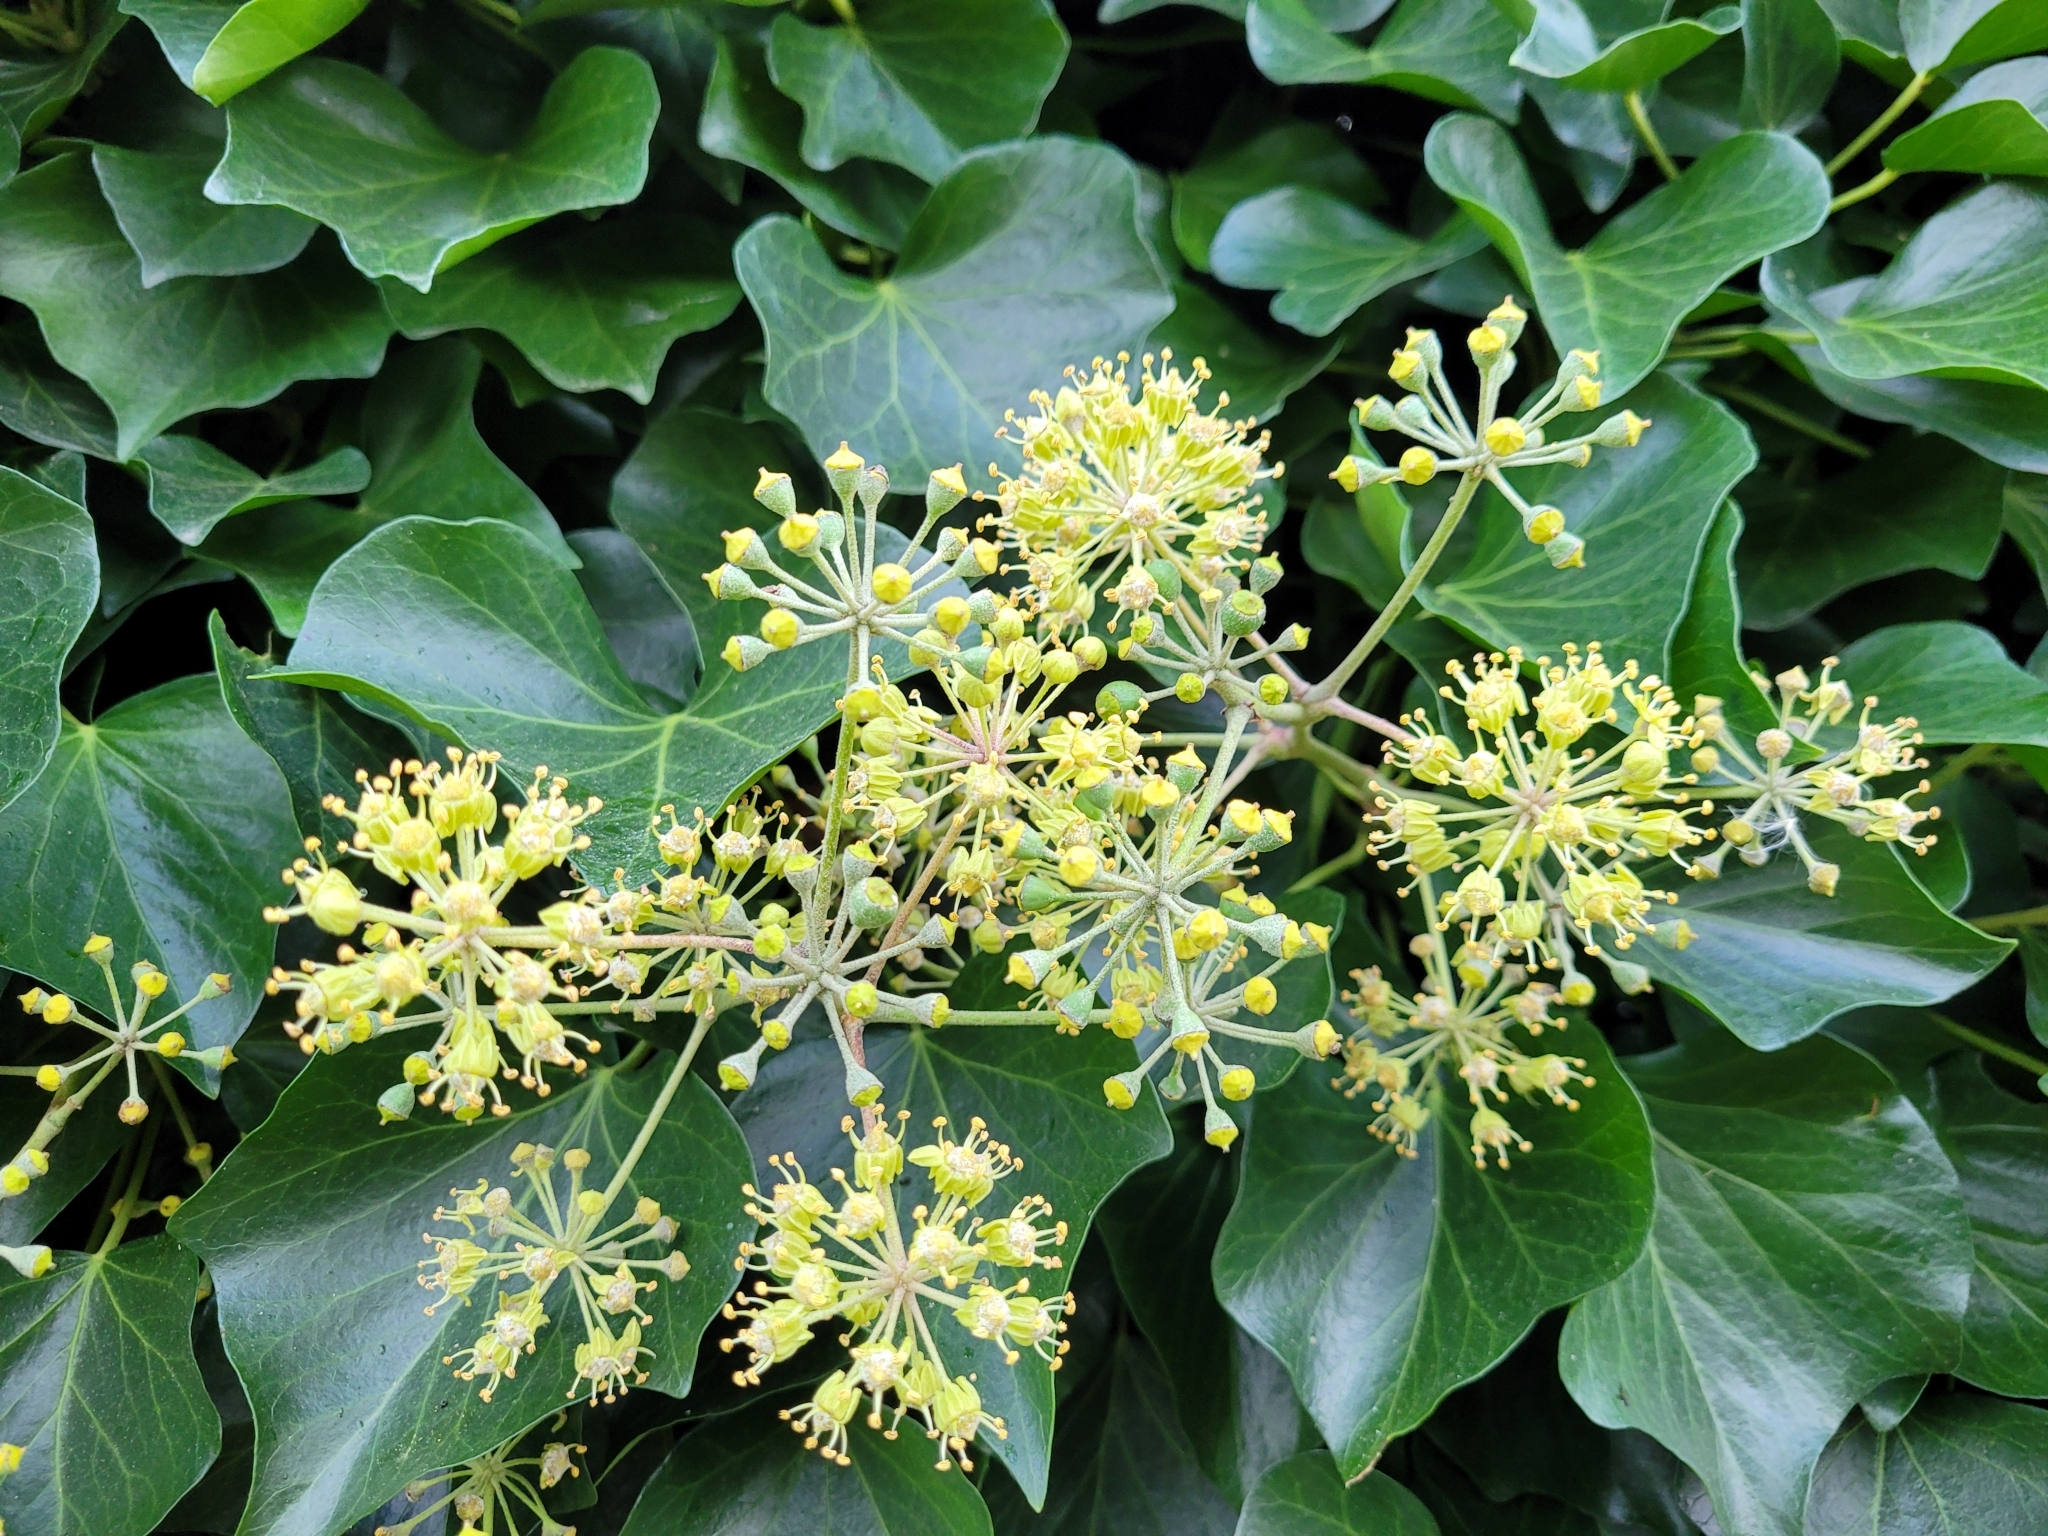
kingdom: Plantae
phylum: Tracheophyta
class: Magnoliopsida
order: Apiales
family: Araliaceae
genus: Hedera
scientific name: Hedera helix
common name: Ivy
